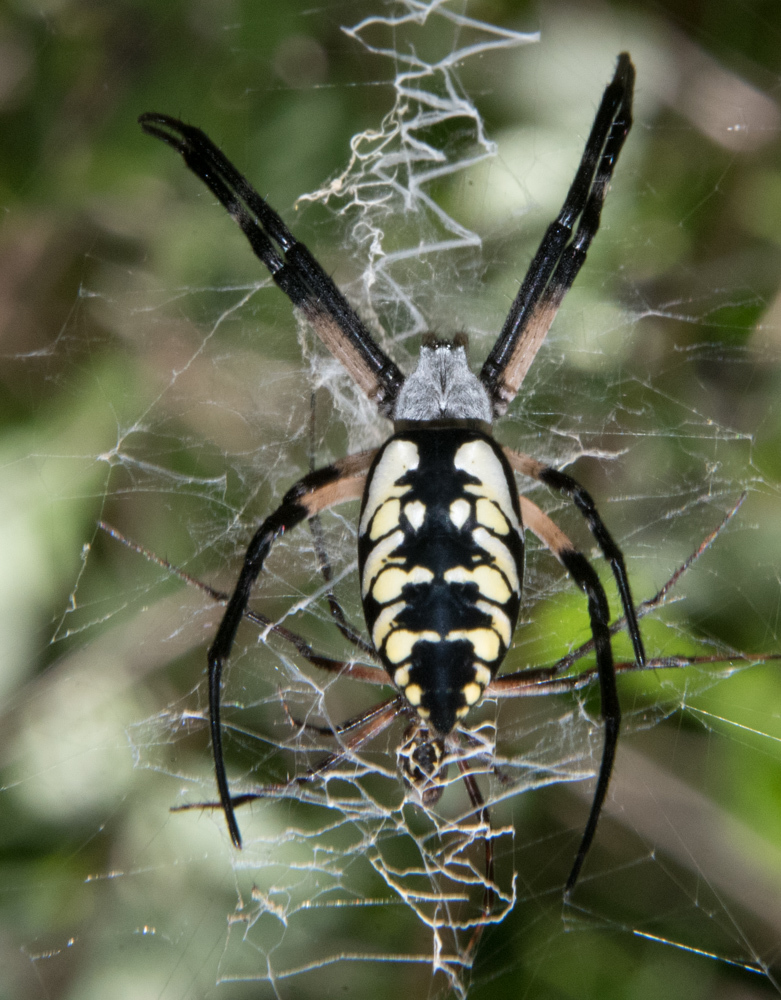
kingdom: Animalia
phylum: Arthropoda
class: Arachnida
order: Araneae
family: Araneidae
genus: Argiope
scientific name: Argiope aurantia
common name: Orb weavers
